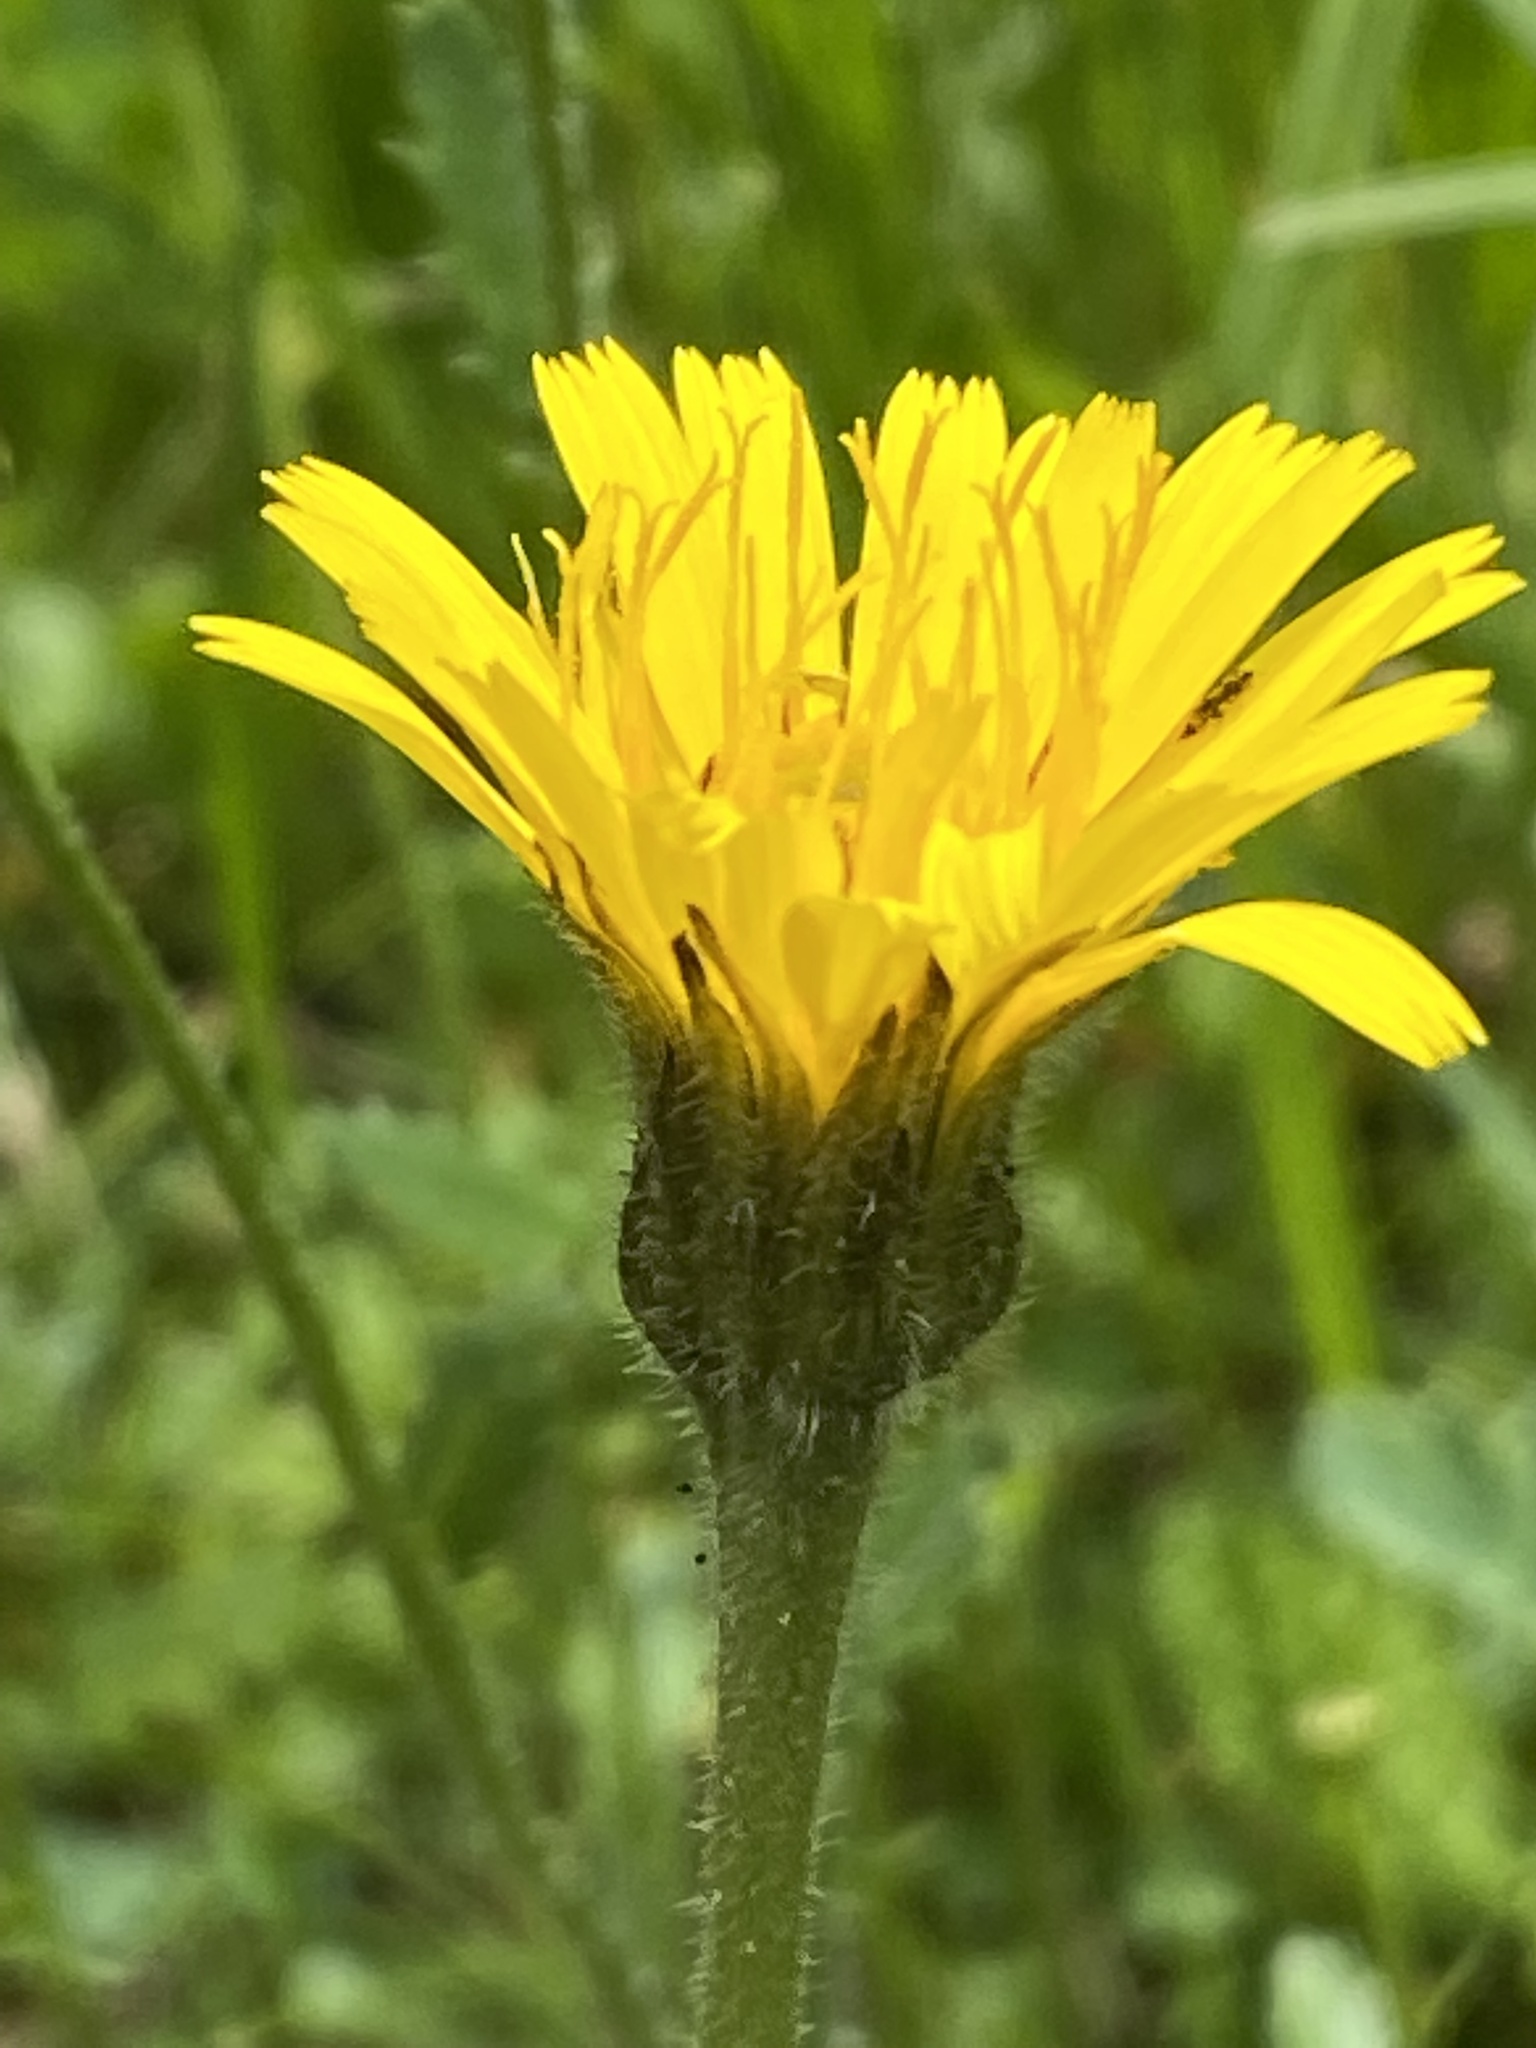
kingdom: Plantae
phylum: Tracheophyta
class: Magnoliopsida
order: Asterales
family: Asteraceae
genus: Leontodon
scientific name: Leontodon hispidus
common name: Rough hawkbit
